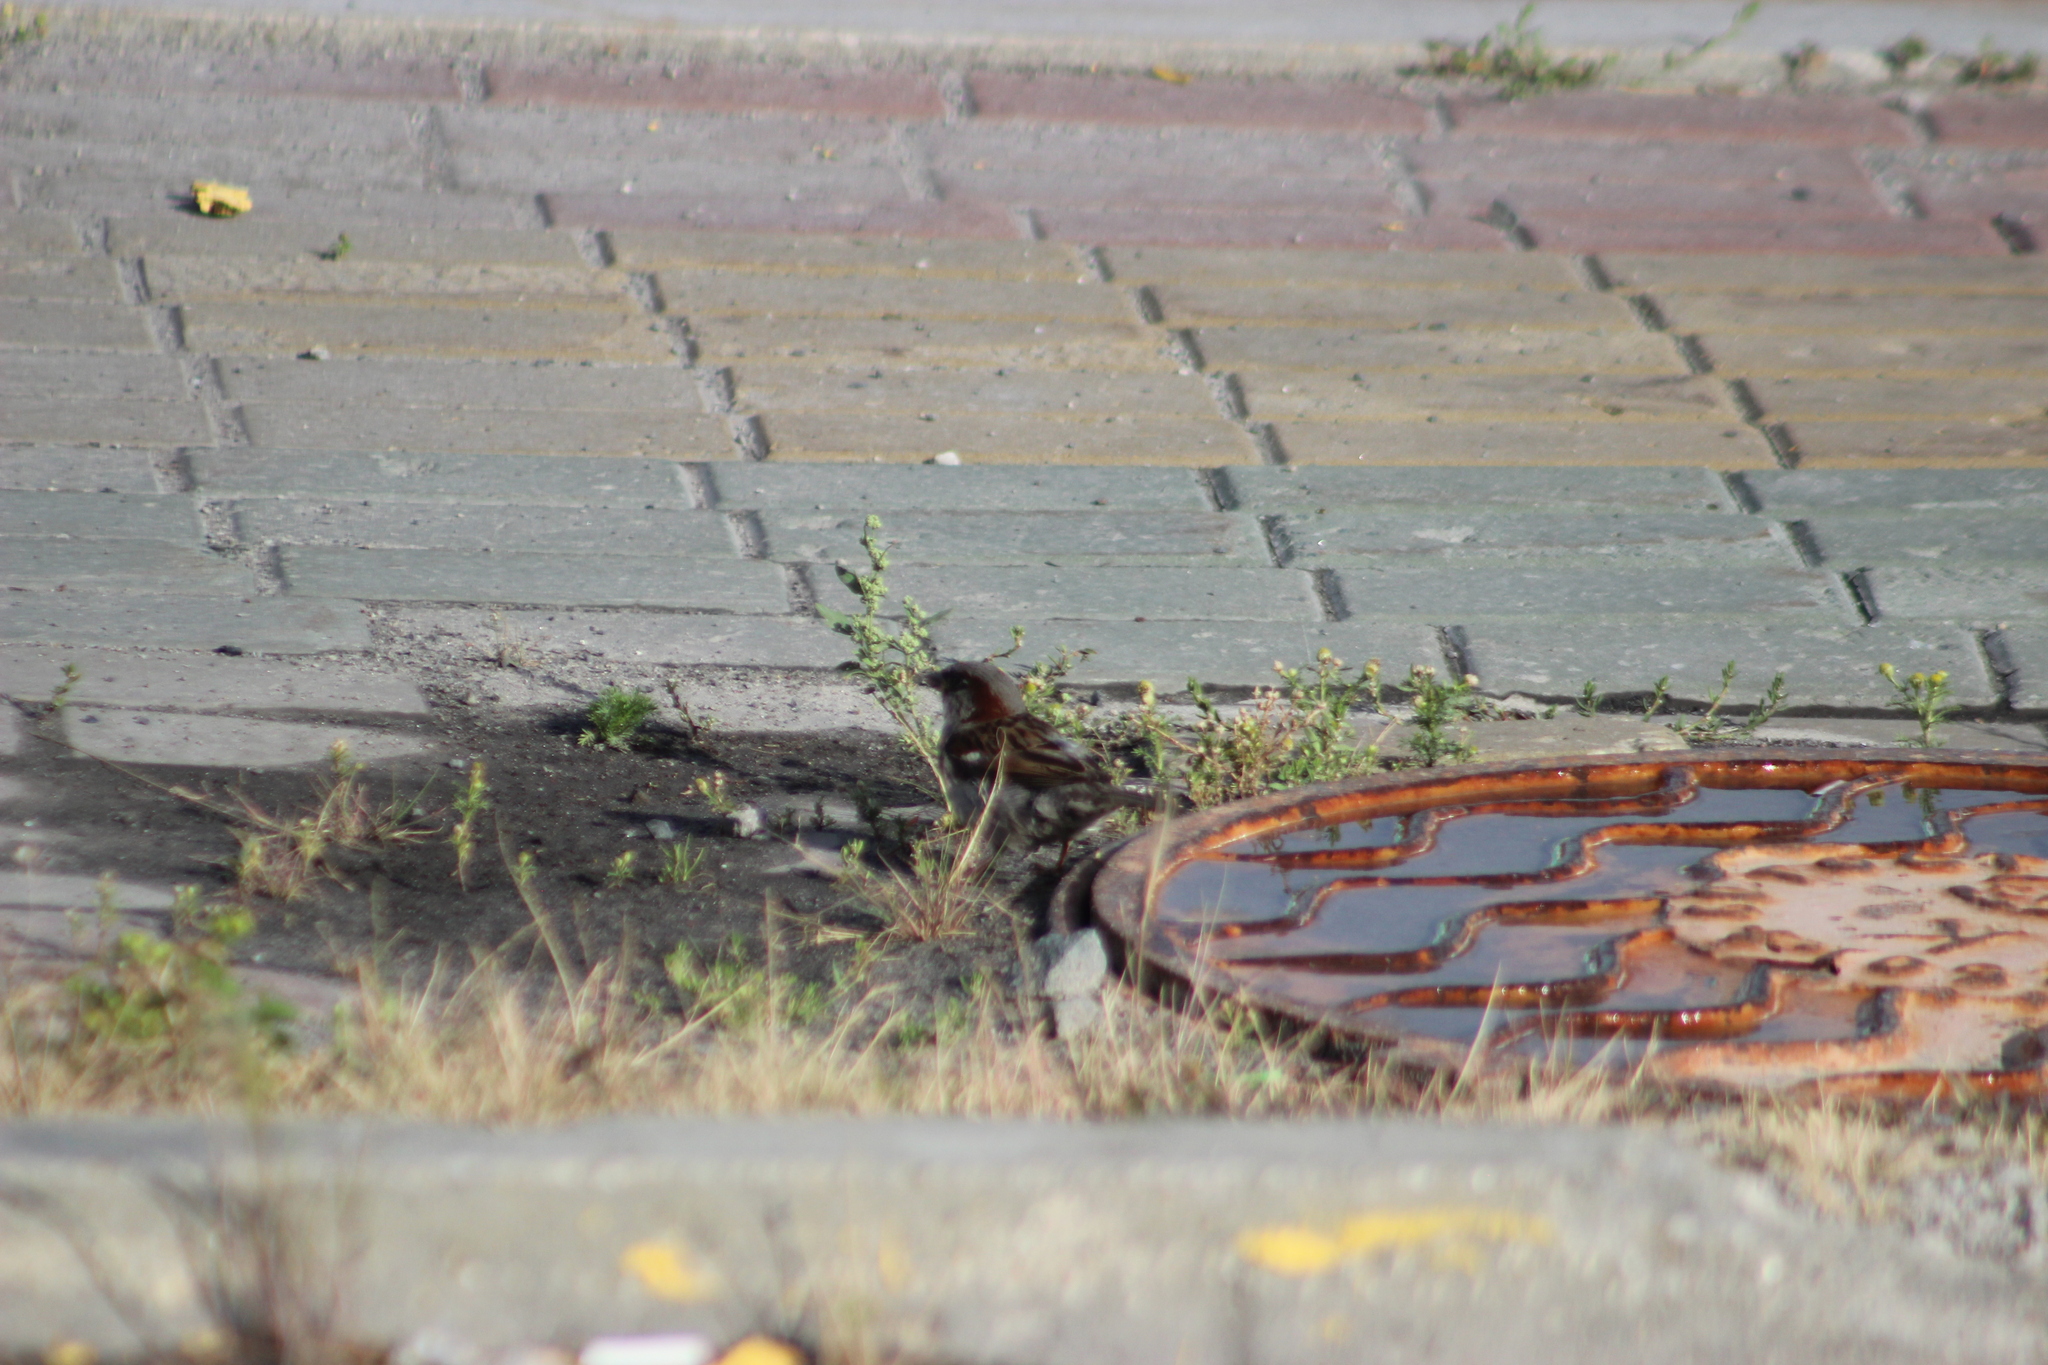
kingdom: Animalia
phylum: Chordata
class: Aves
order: Passeriformes
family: Passeridae
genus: Passer
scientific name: Passer domesticus
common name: House sparrow
